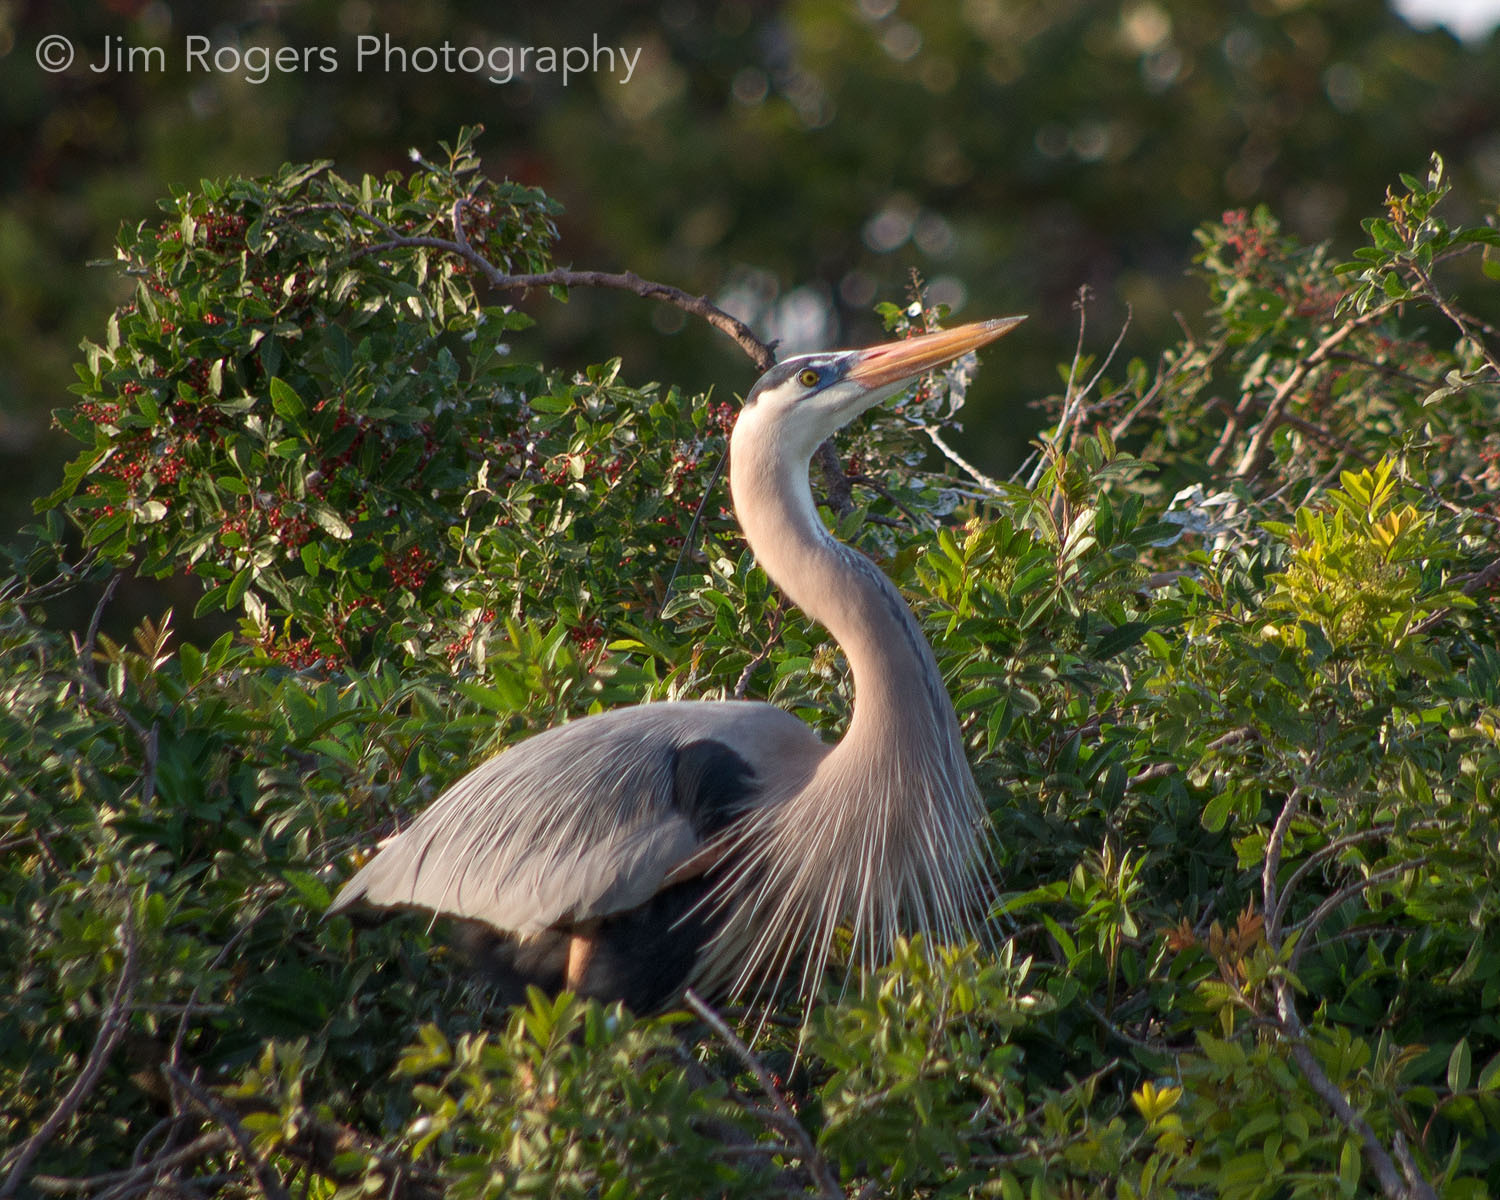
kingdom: Animalia
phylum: Chordata
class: Aves
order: Pelecaniformes
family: Ardeidae
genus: Ardea
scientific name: Ardea herodias
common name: Great blue heron
